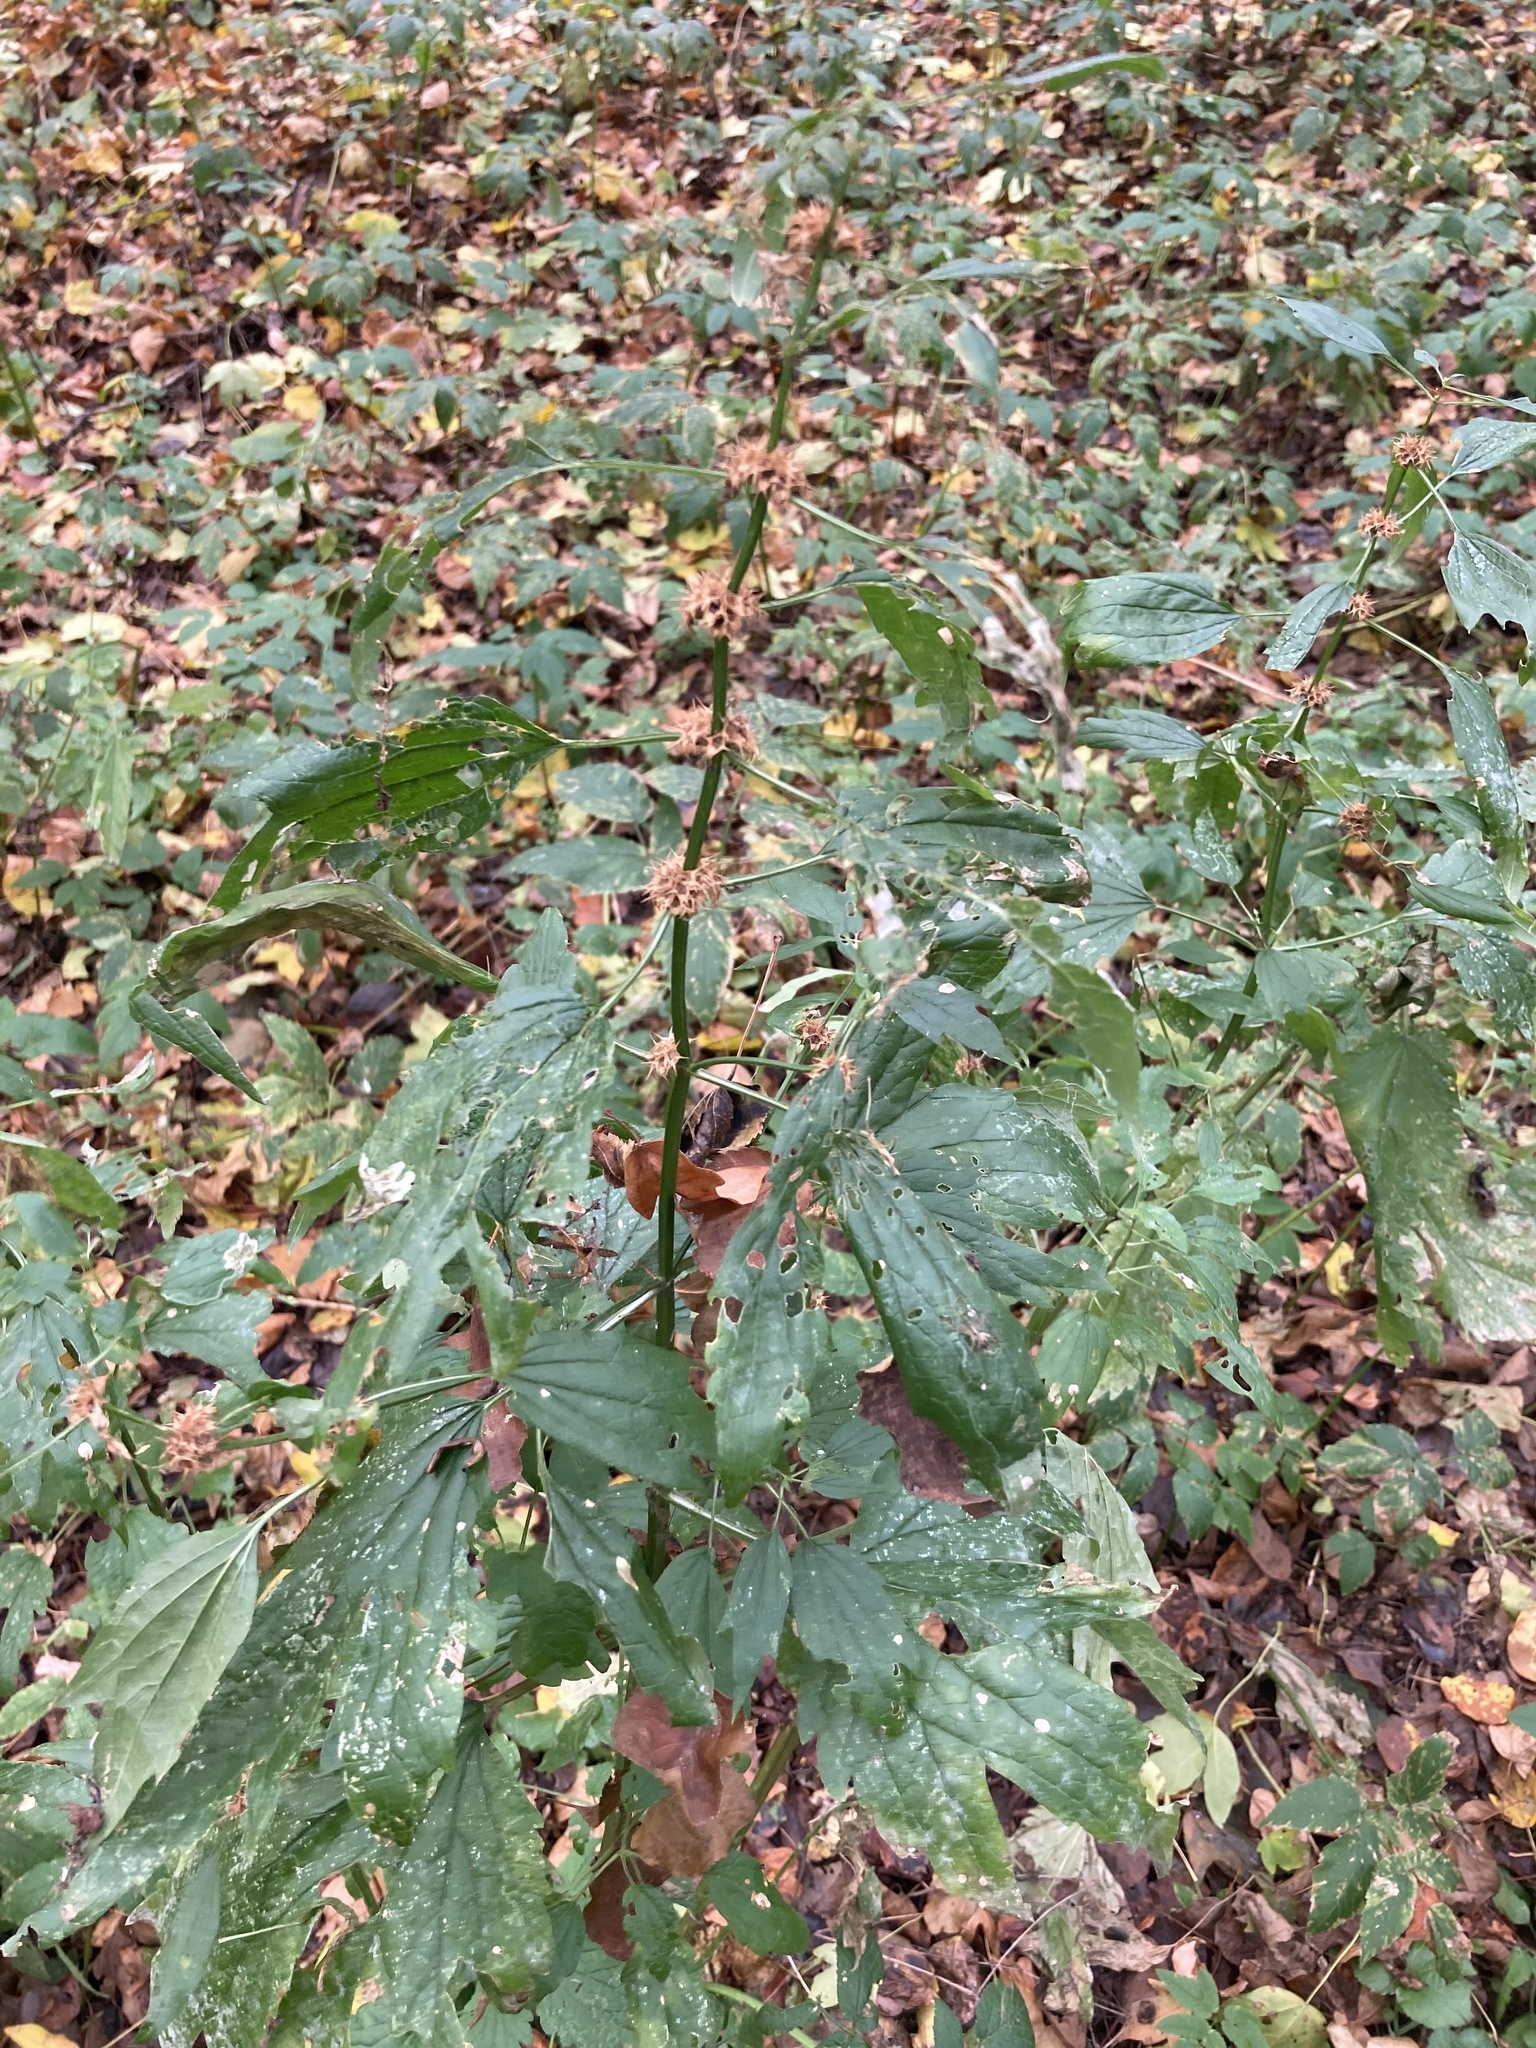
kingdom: Plantae
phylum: Tracheophyta
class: Magnoliopsida
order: Lamiales
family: Lamiaceae
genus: Leonurus
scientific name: Leonurus quinquelobatus
